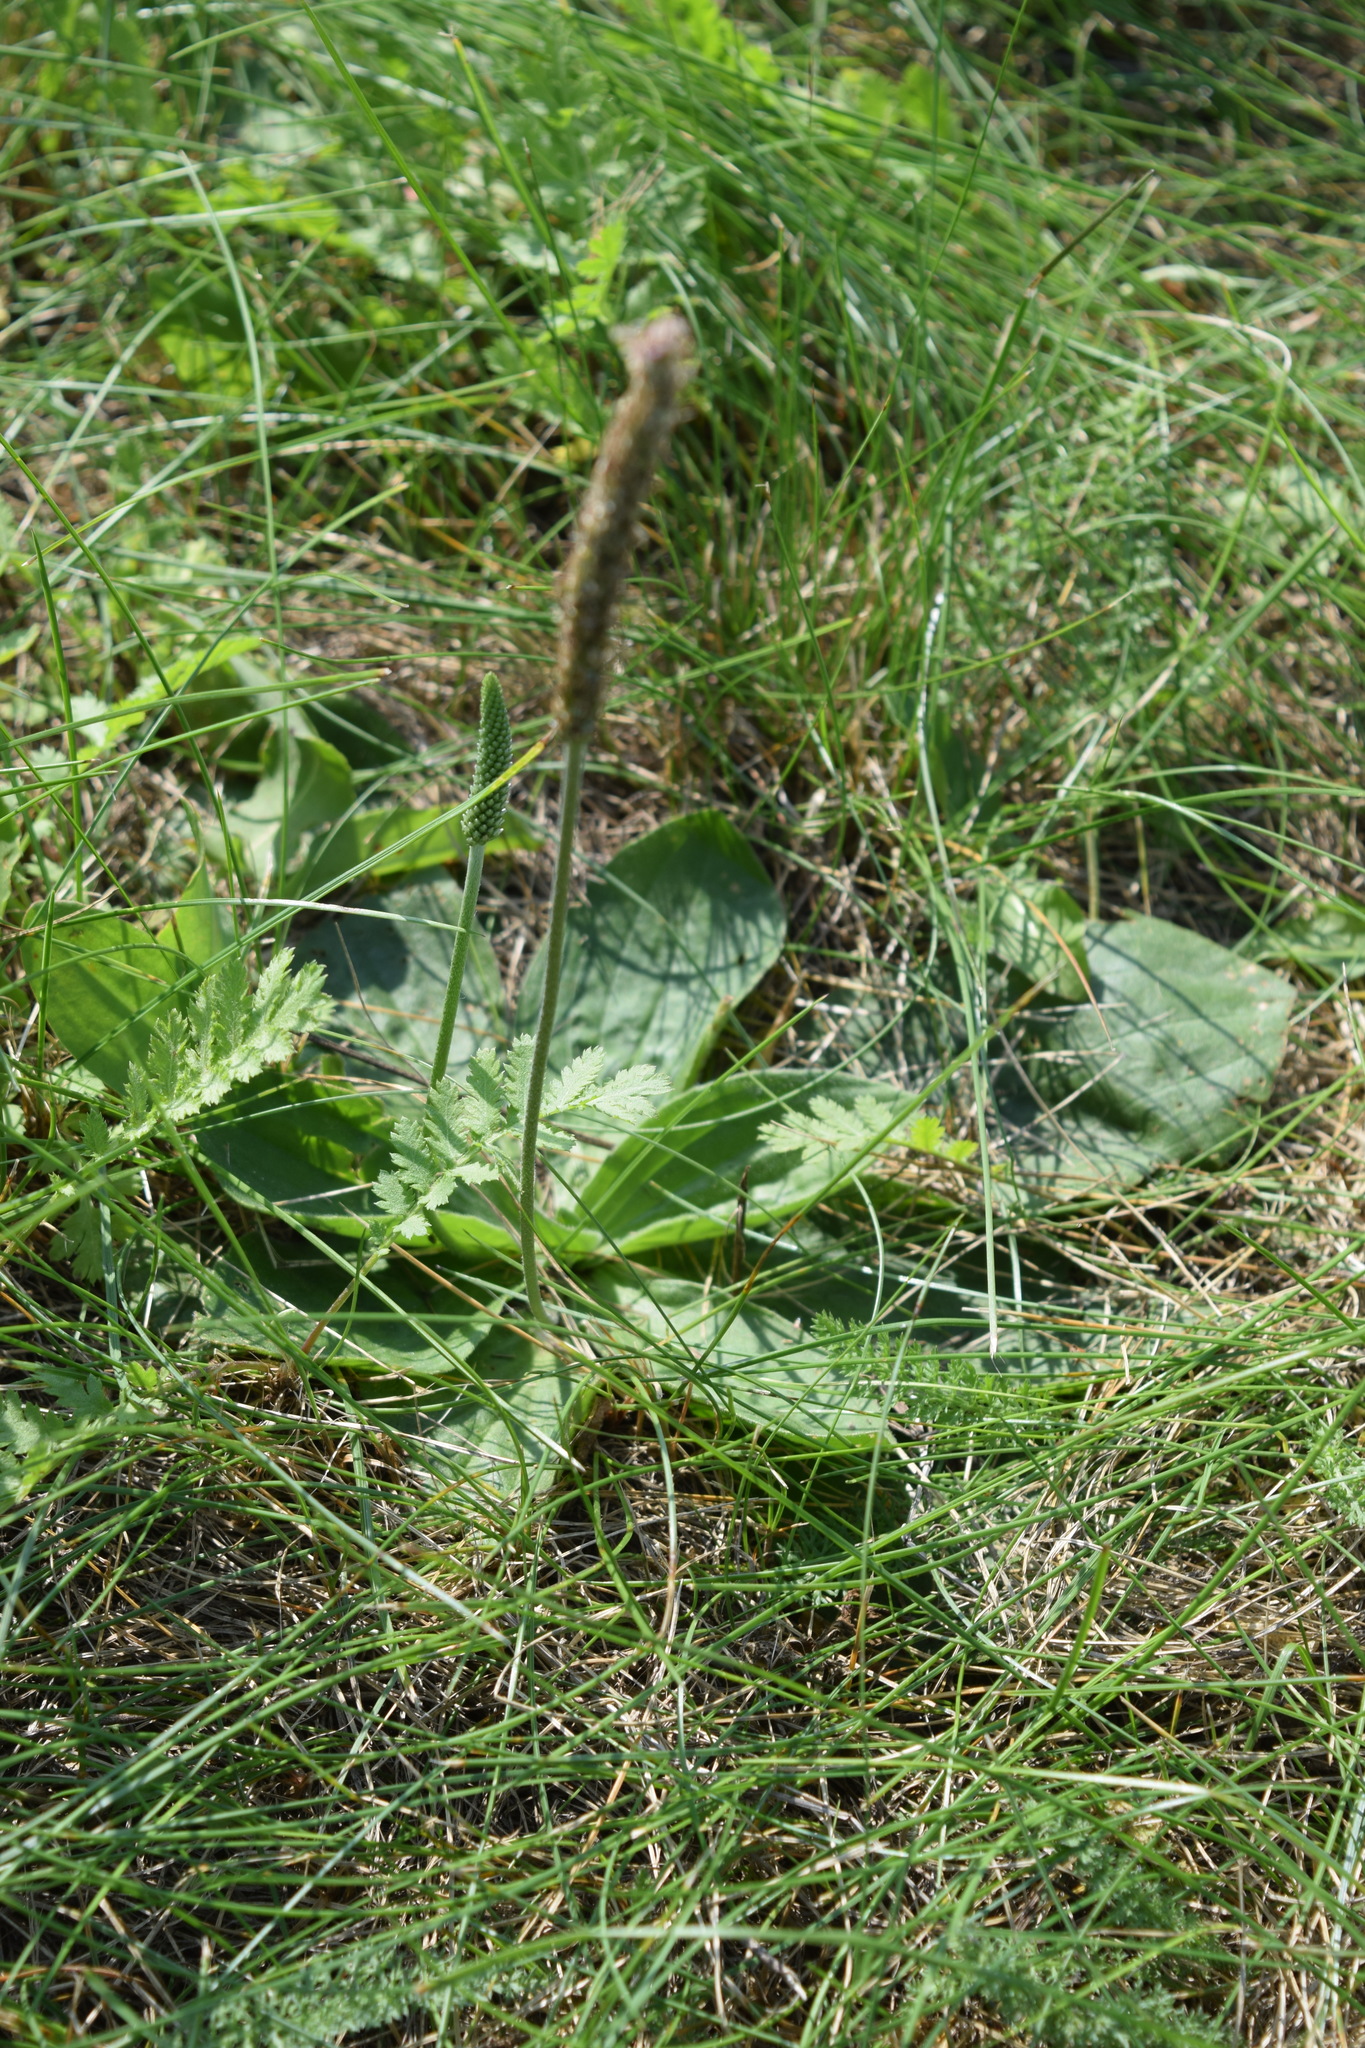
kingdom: Plantae
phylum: Tracheophyta
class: Magnoliopsida
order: Lamiales
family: Plantaginaceae
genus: Plantago
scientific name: Plantago media
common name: Hoary plantain
